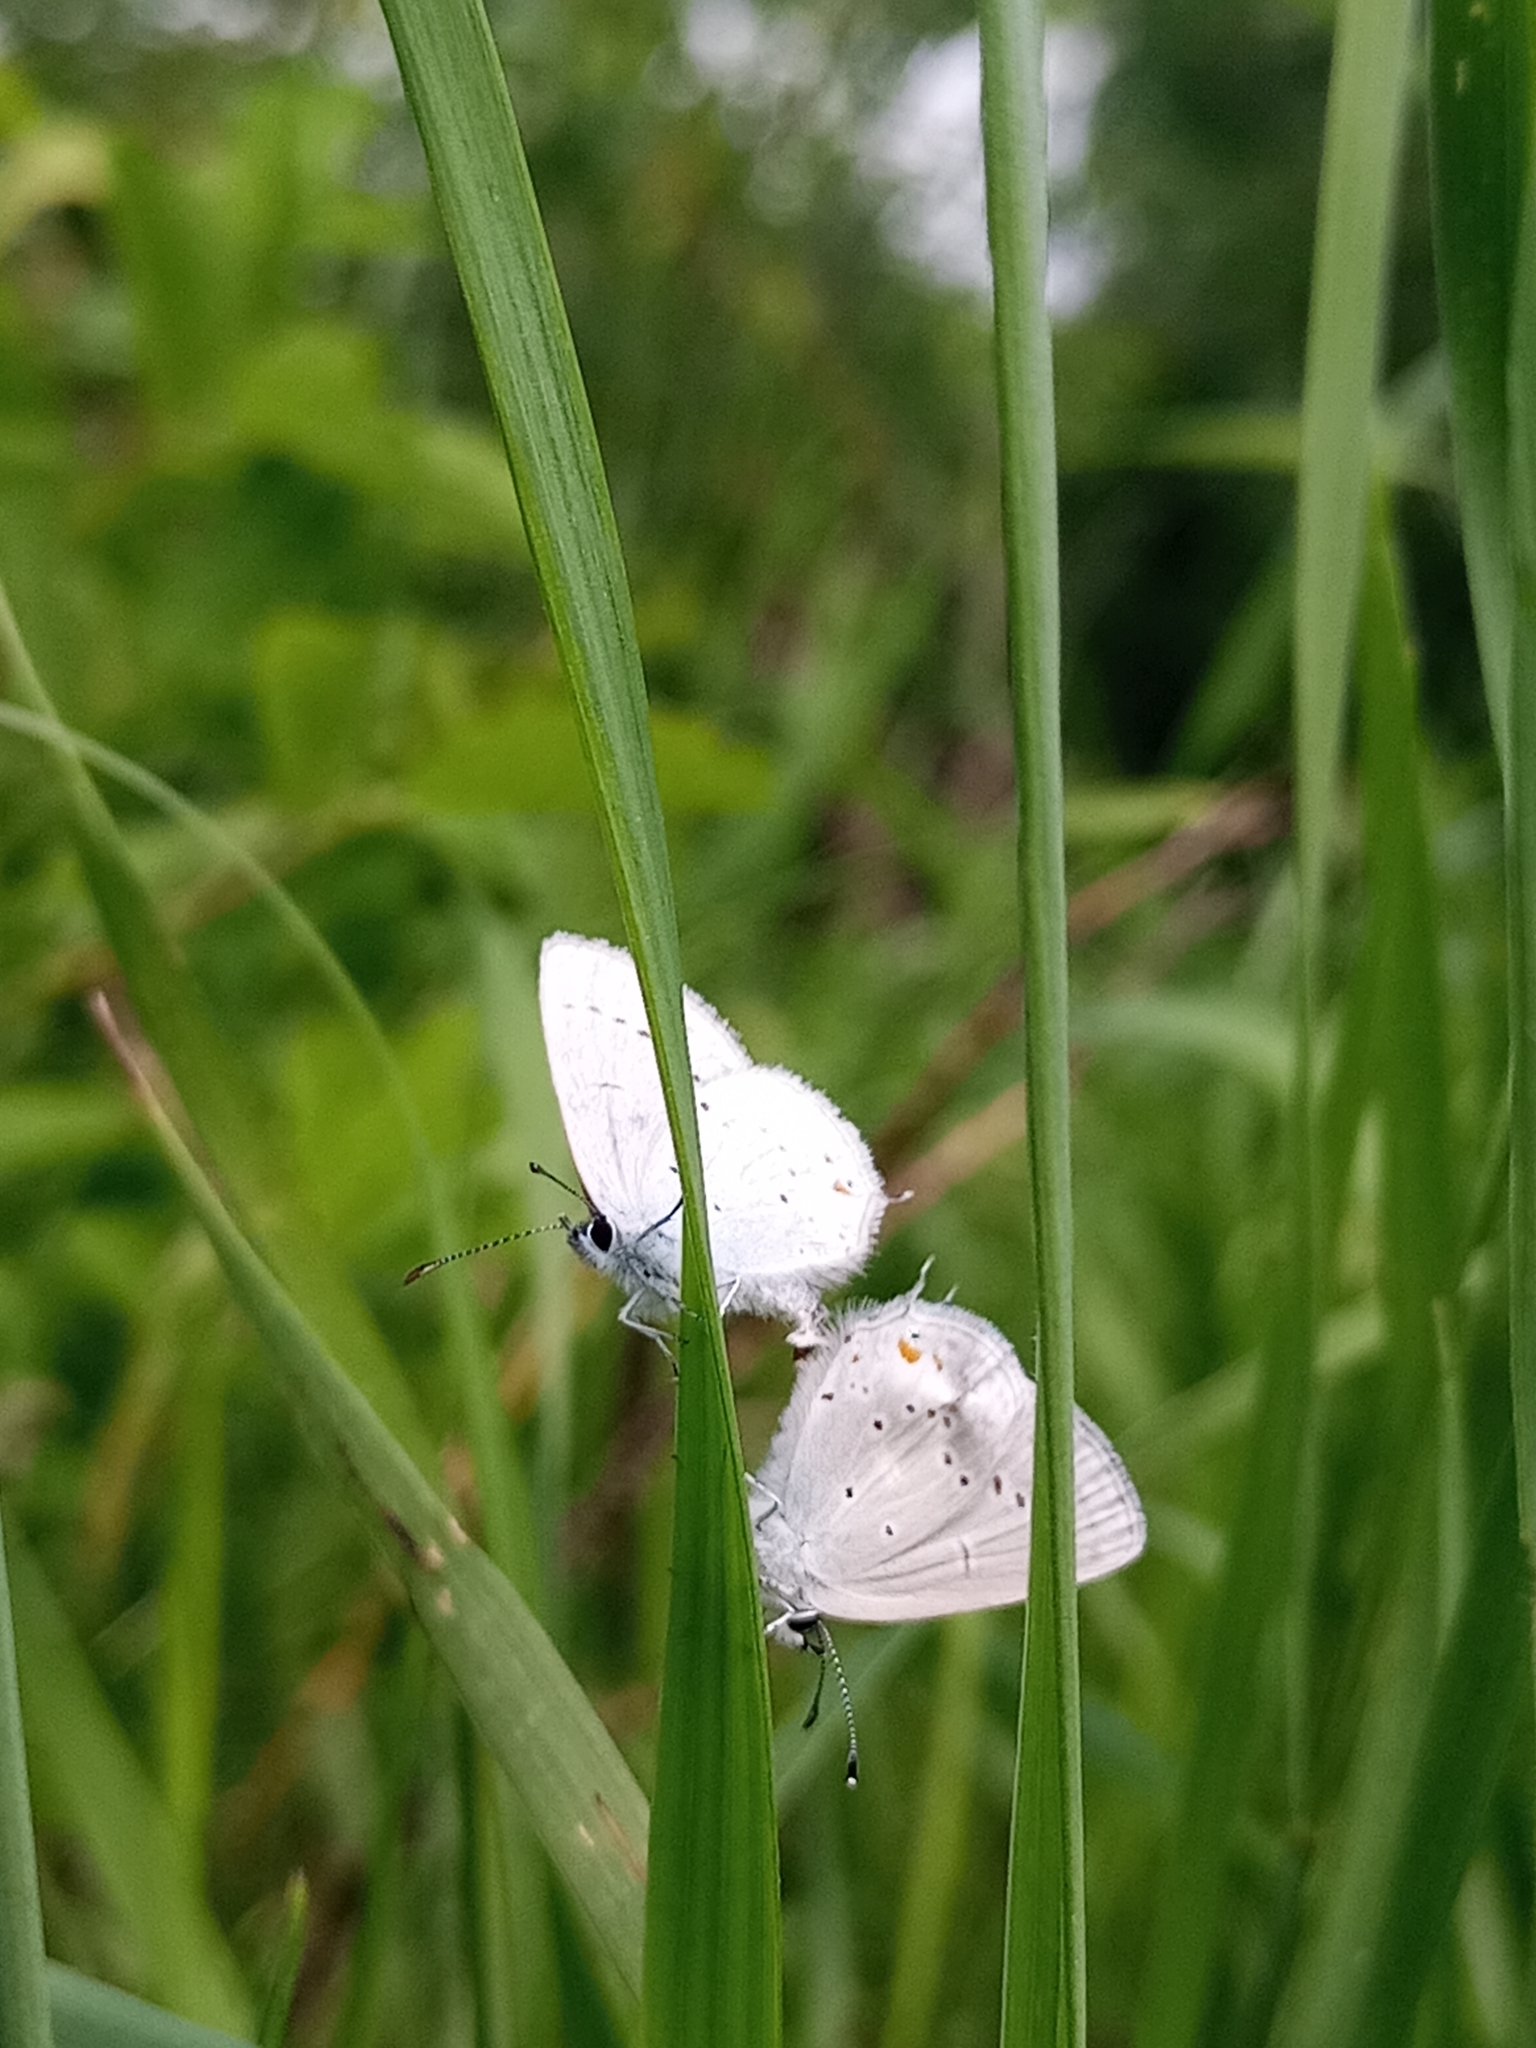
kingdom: Animalia
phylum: Arthropoda
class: Insecta
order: Lepidoptera
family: Lycaenidae
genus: Elkalyce
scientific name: Elkalyce amyntula
